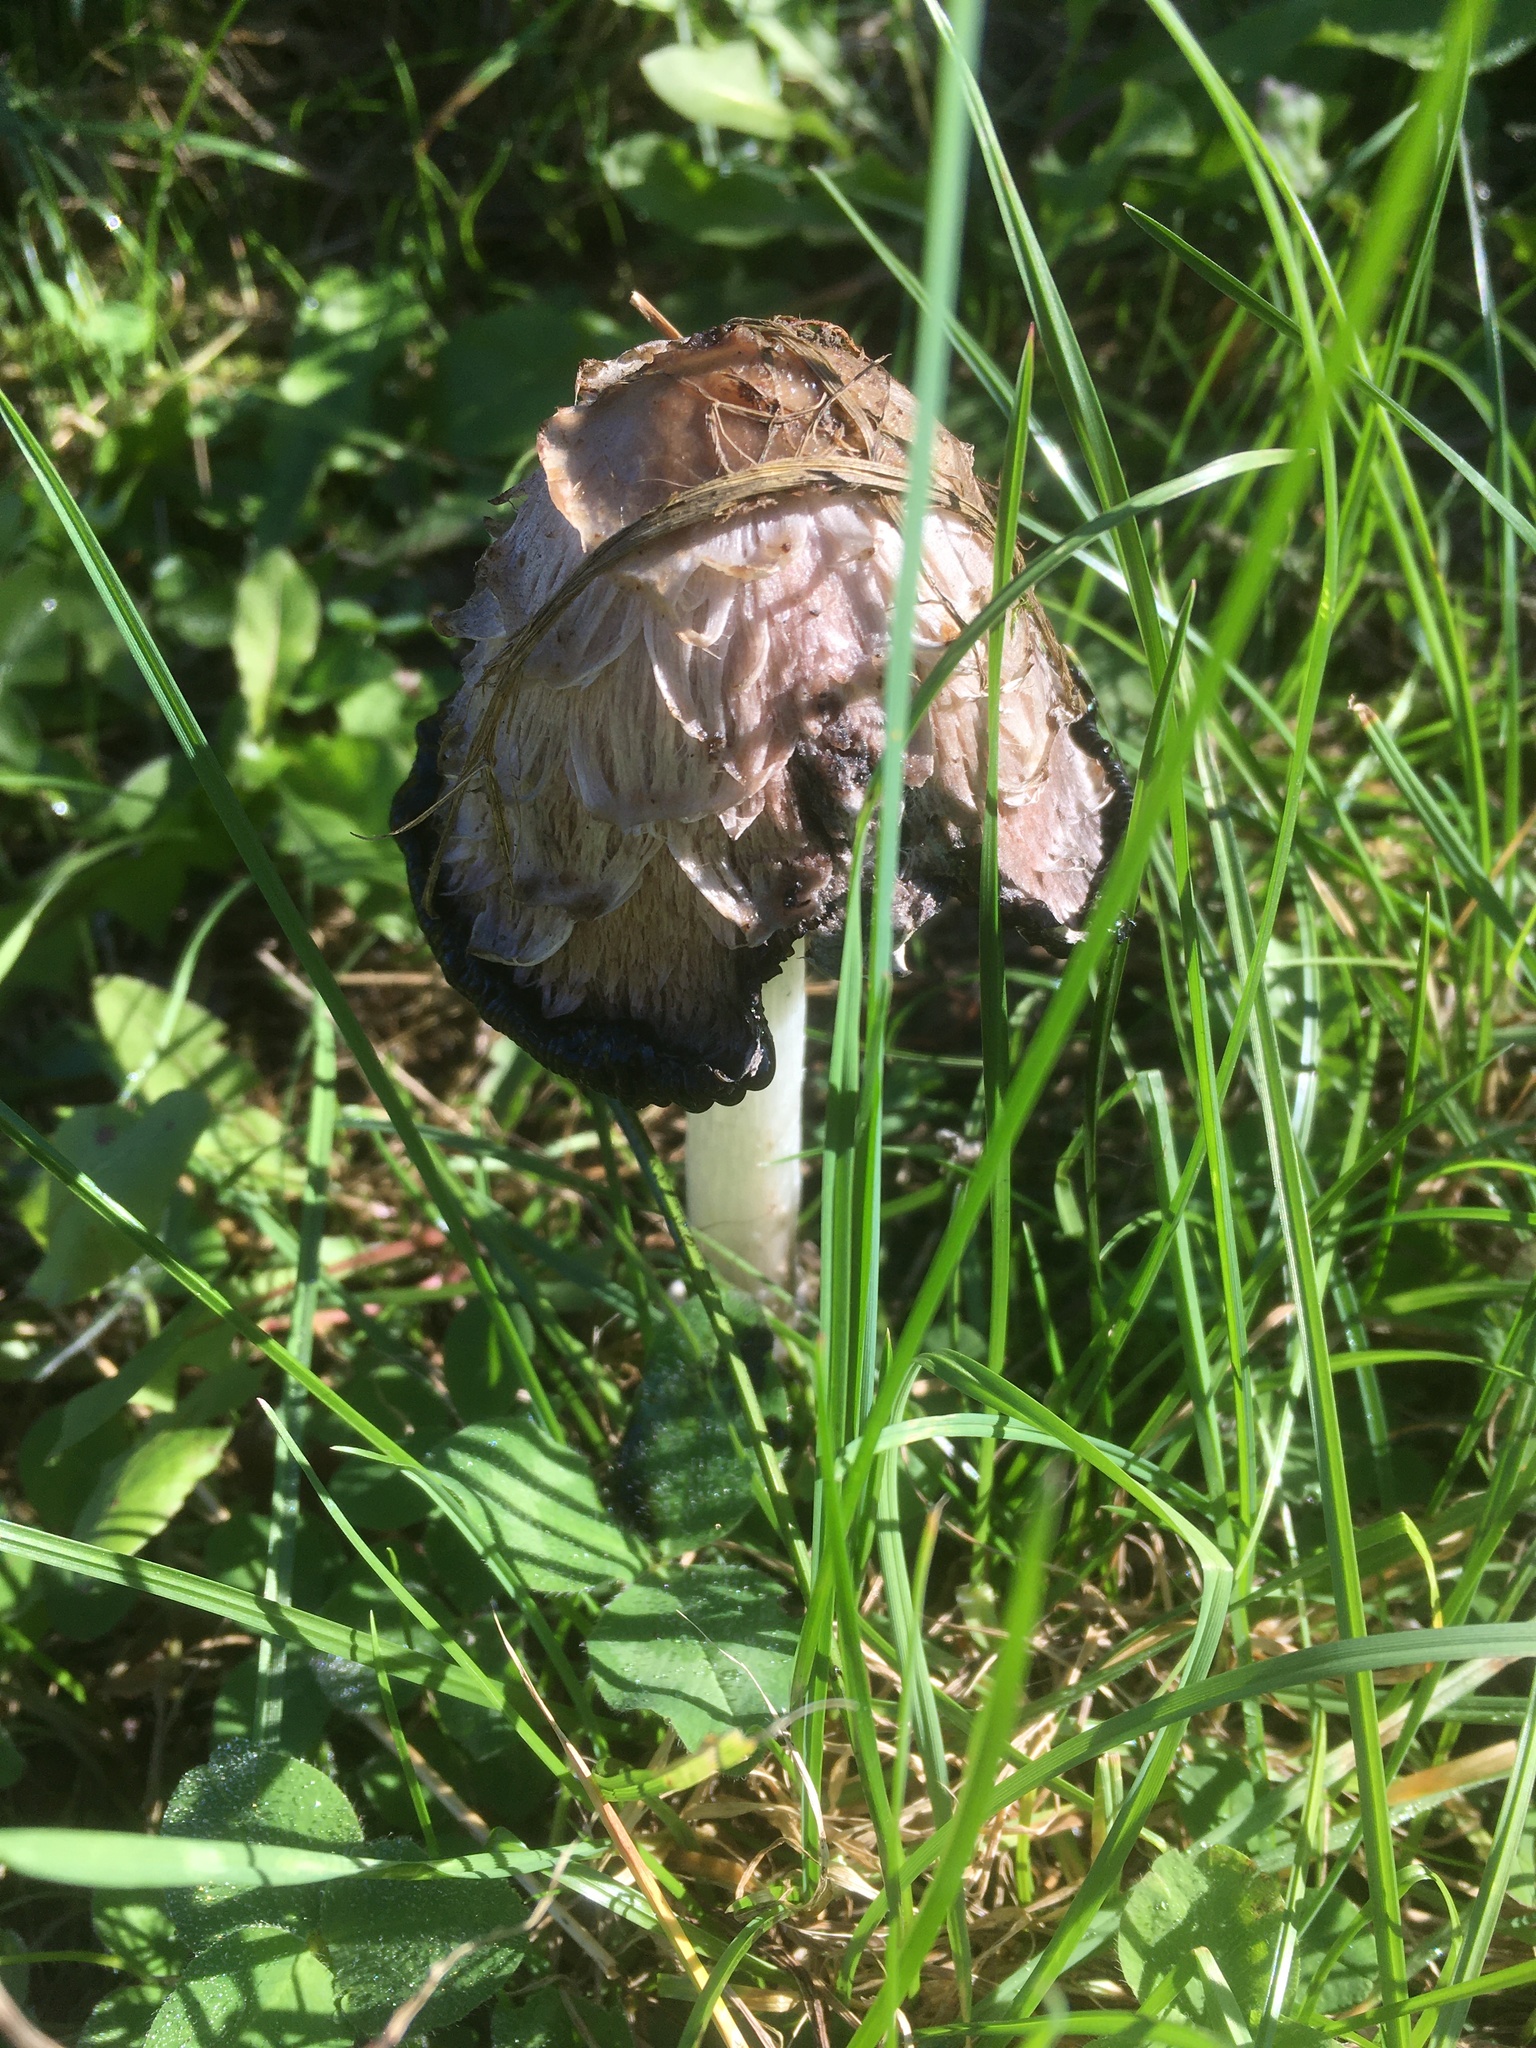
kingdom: Fungi
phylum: Basidiomycota
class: Agaricomycetes
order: Agaricales
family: Agaricaceae
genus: Coprinus
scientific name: Coprinus comatus
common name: Lawyer's wig
